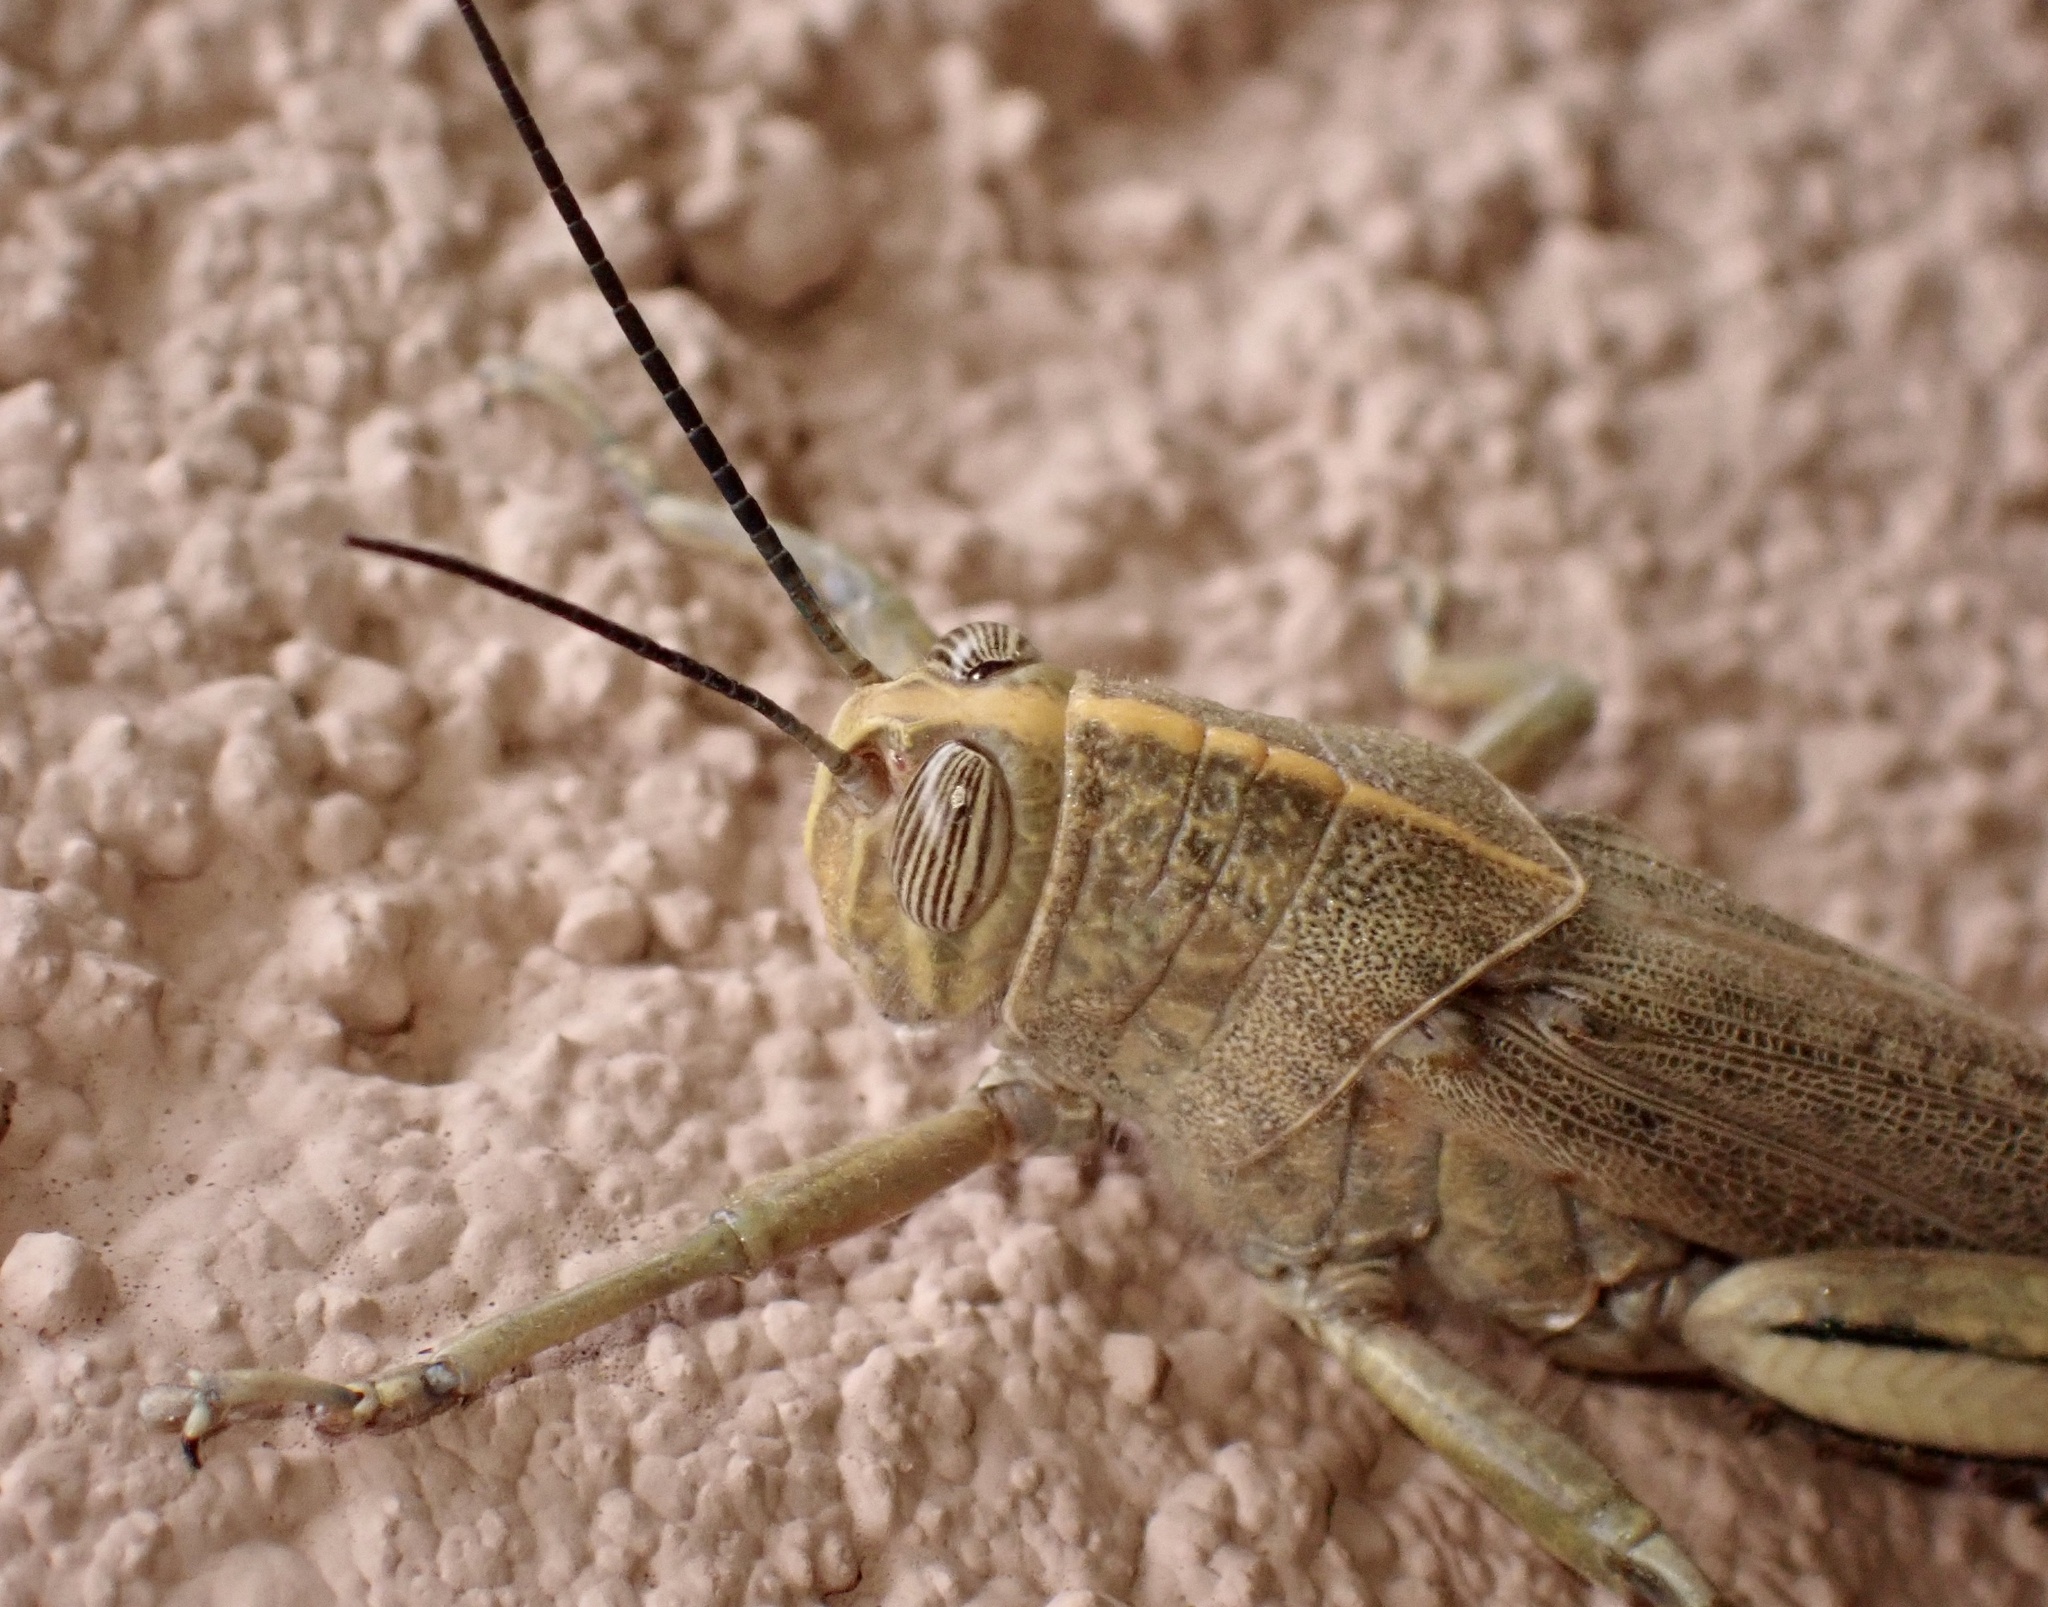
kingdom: Animalia
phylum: Arthropoda
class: Insecta
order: Orthoptera
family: Acrididae
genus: Anacridium
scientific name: Anacridium aegyptium
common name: Egyptian grasshopper
